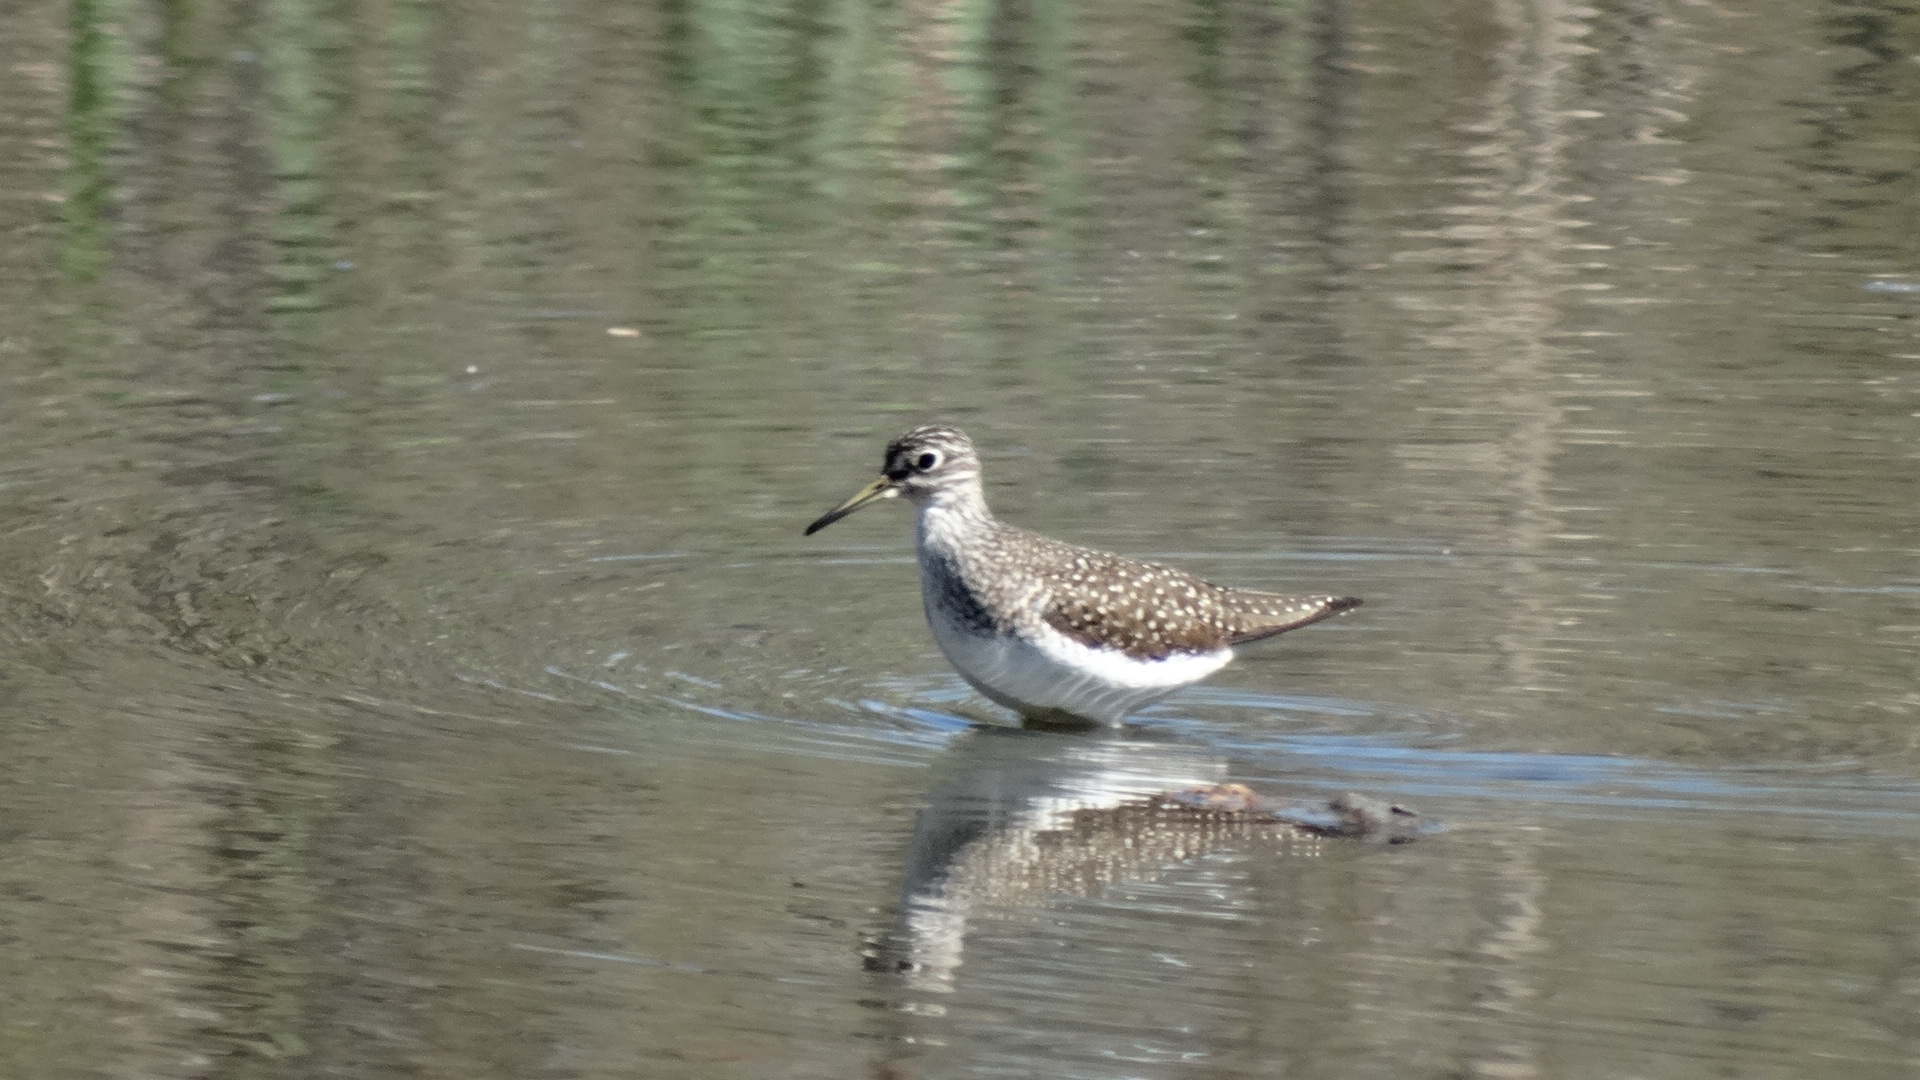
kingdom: Animalia
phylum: Chordata
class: Aves
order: Charadriiformes
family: Scolopacidae
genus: Tringa
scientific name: Tringa solitaria
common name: Solitary sandpiper
